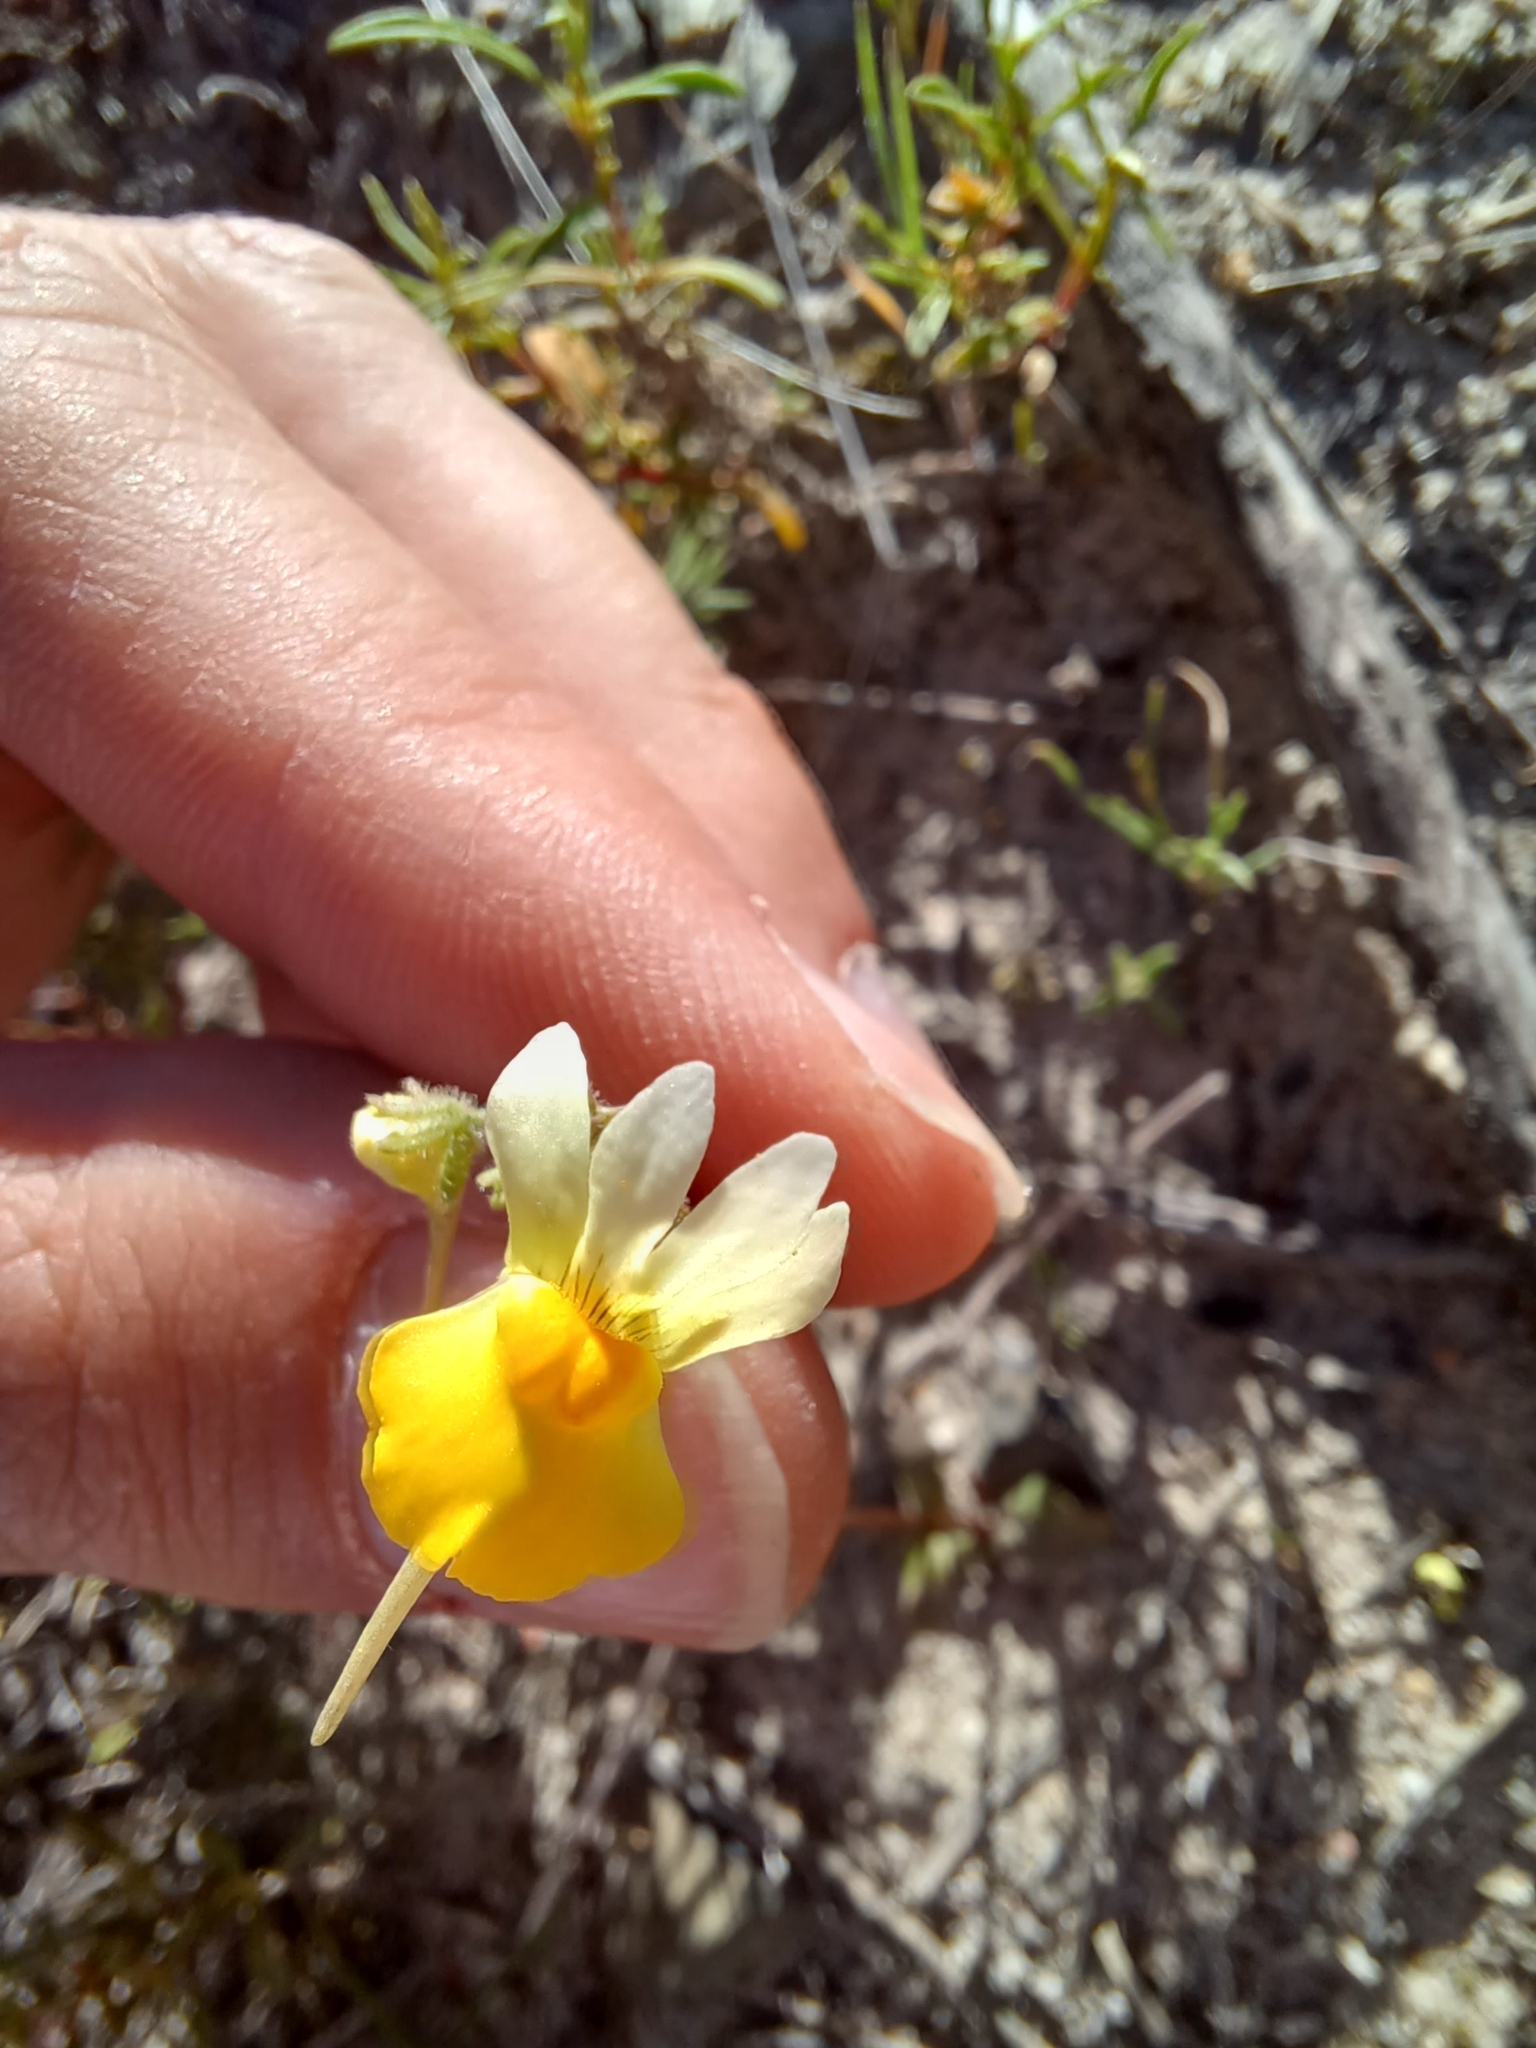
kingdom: Plantae
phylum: Tracheophyta
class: Magnoliopsida
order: Lamiales
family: Scrophulariaceae
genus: Nemesia
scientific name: Nemesia calcarata
